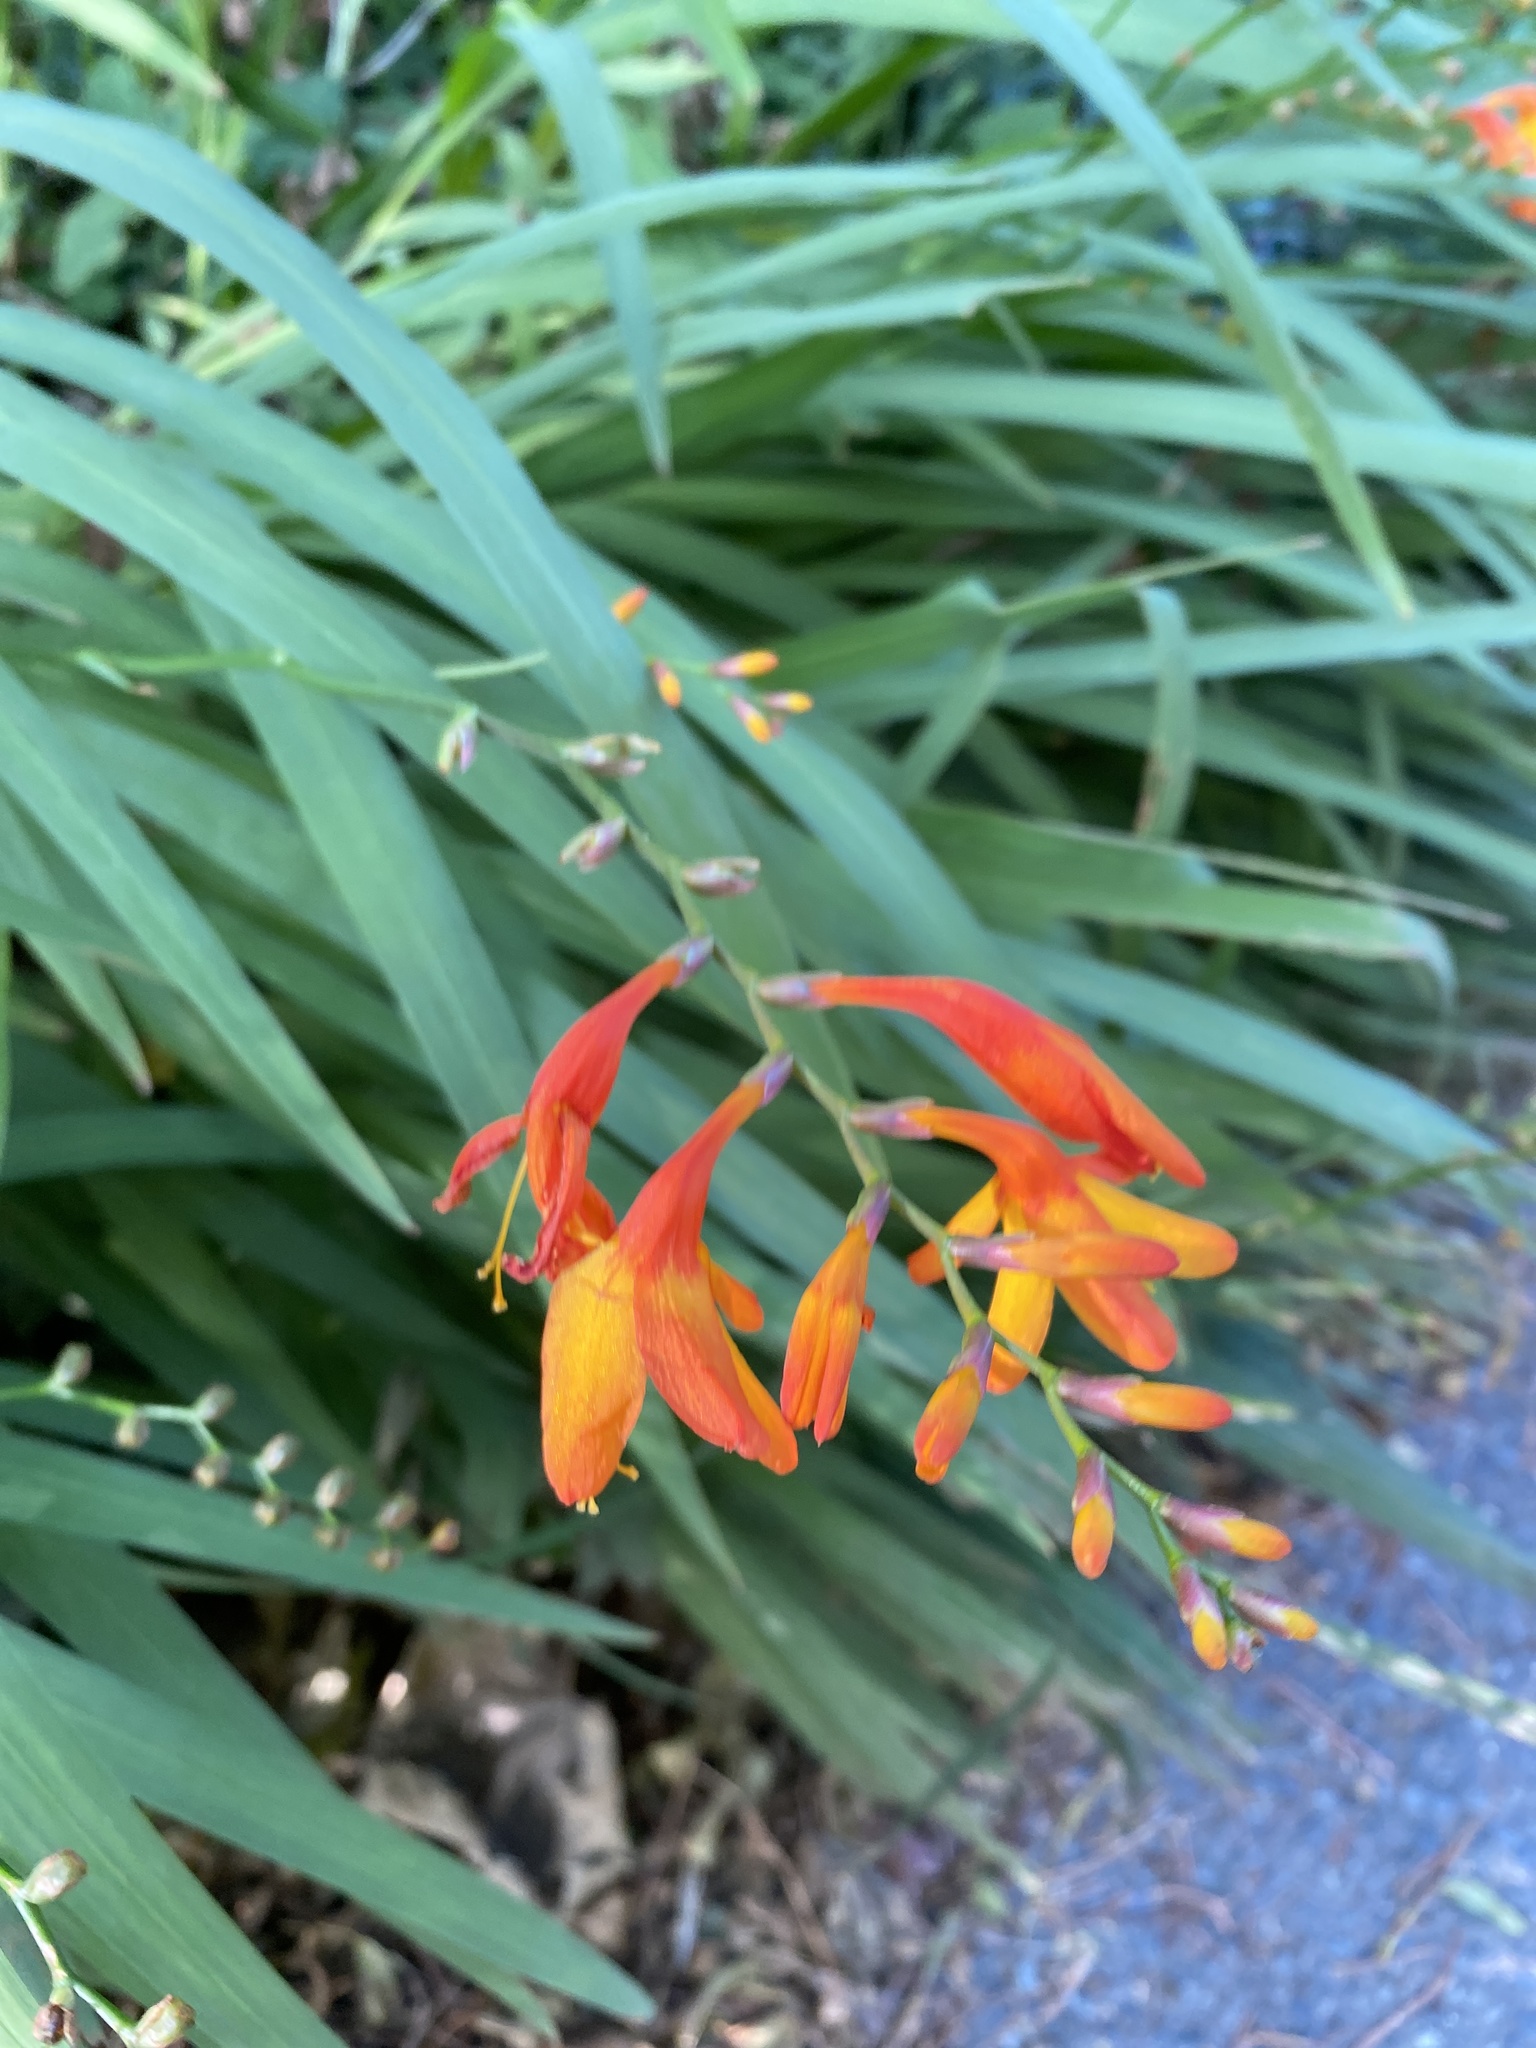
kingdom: Plantae
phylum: Tracheophyta
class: Liliopsida
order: Asparagales
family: Iridaceae
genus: Crocosmia
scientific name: Crocosmia crocosmiiflora
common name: Montbretia
